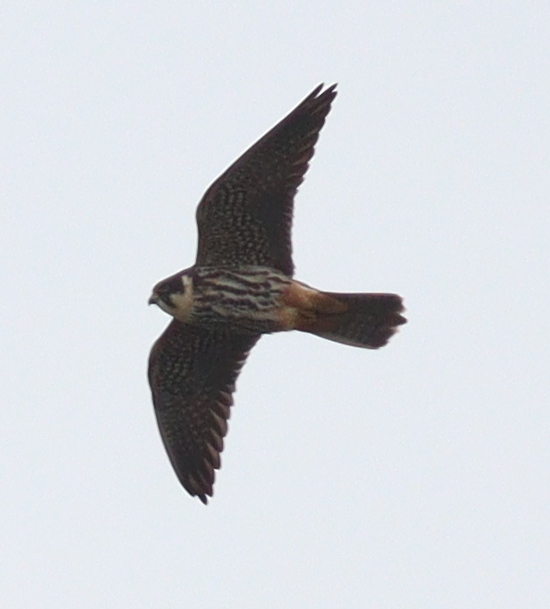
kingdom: Animalia
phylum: Chordata
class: Aves
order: Falconiformes
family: Falconidae
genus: Falco
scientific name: Falco subbuteo
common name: Eurasian hobby
